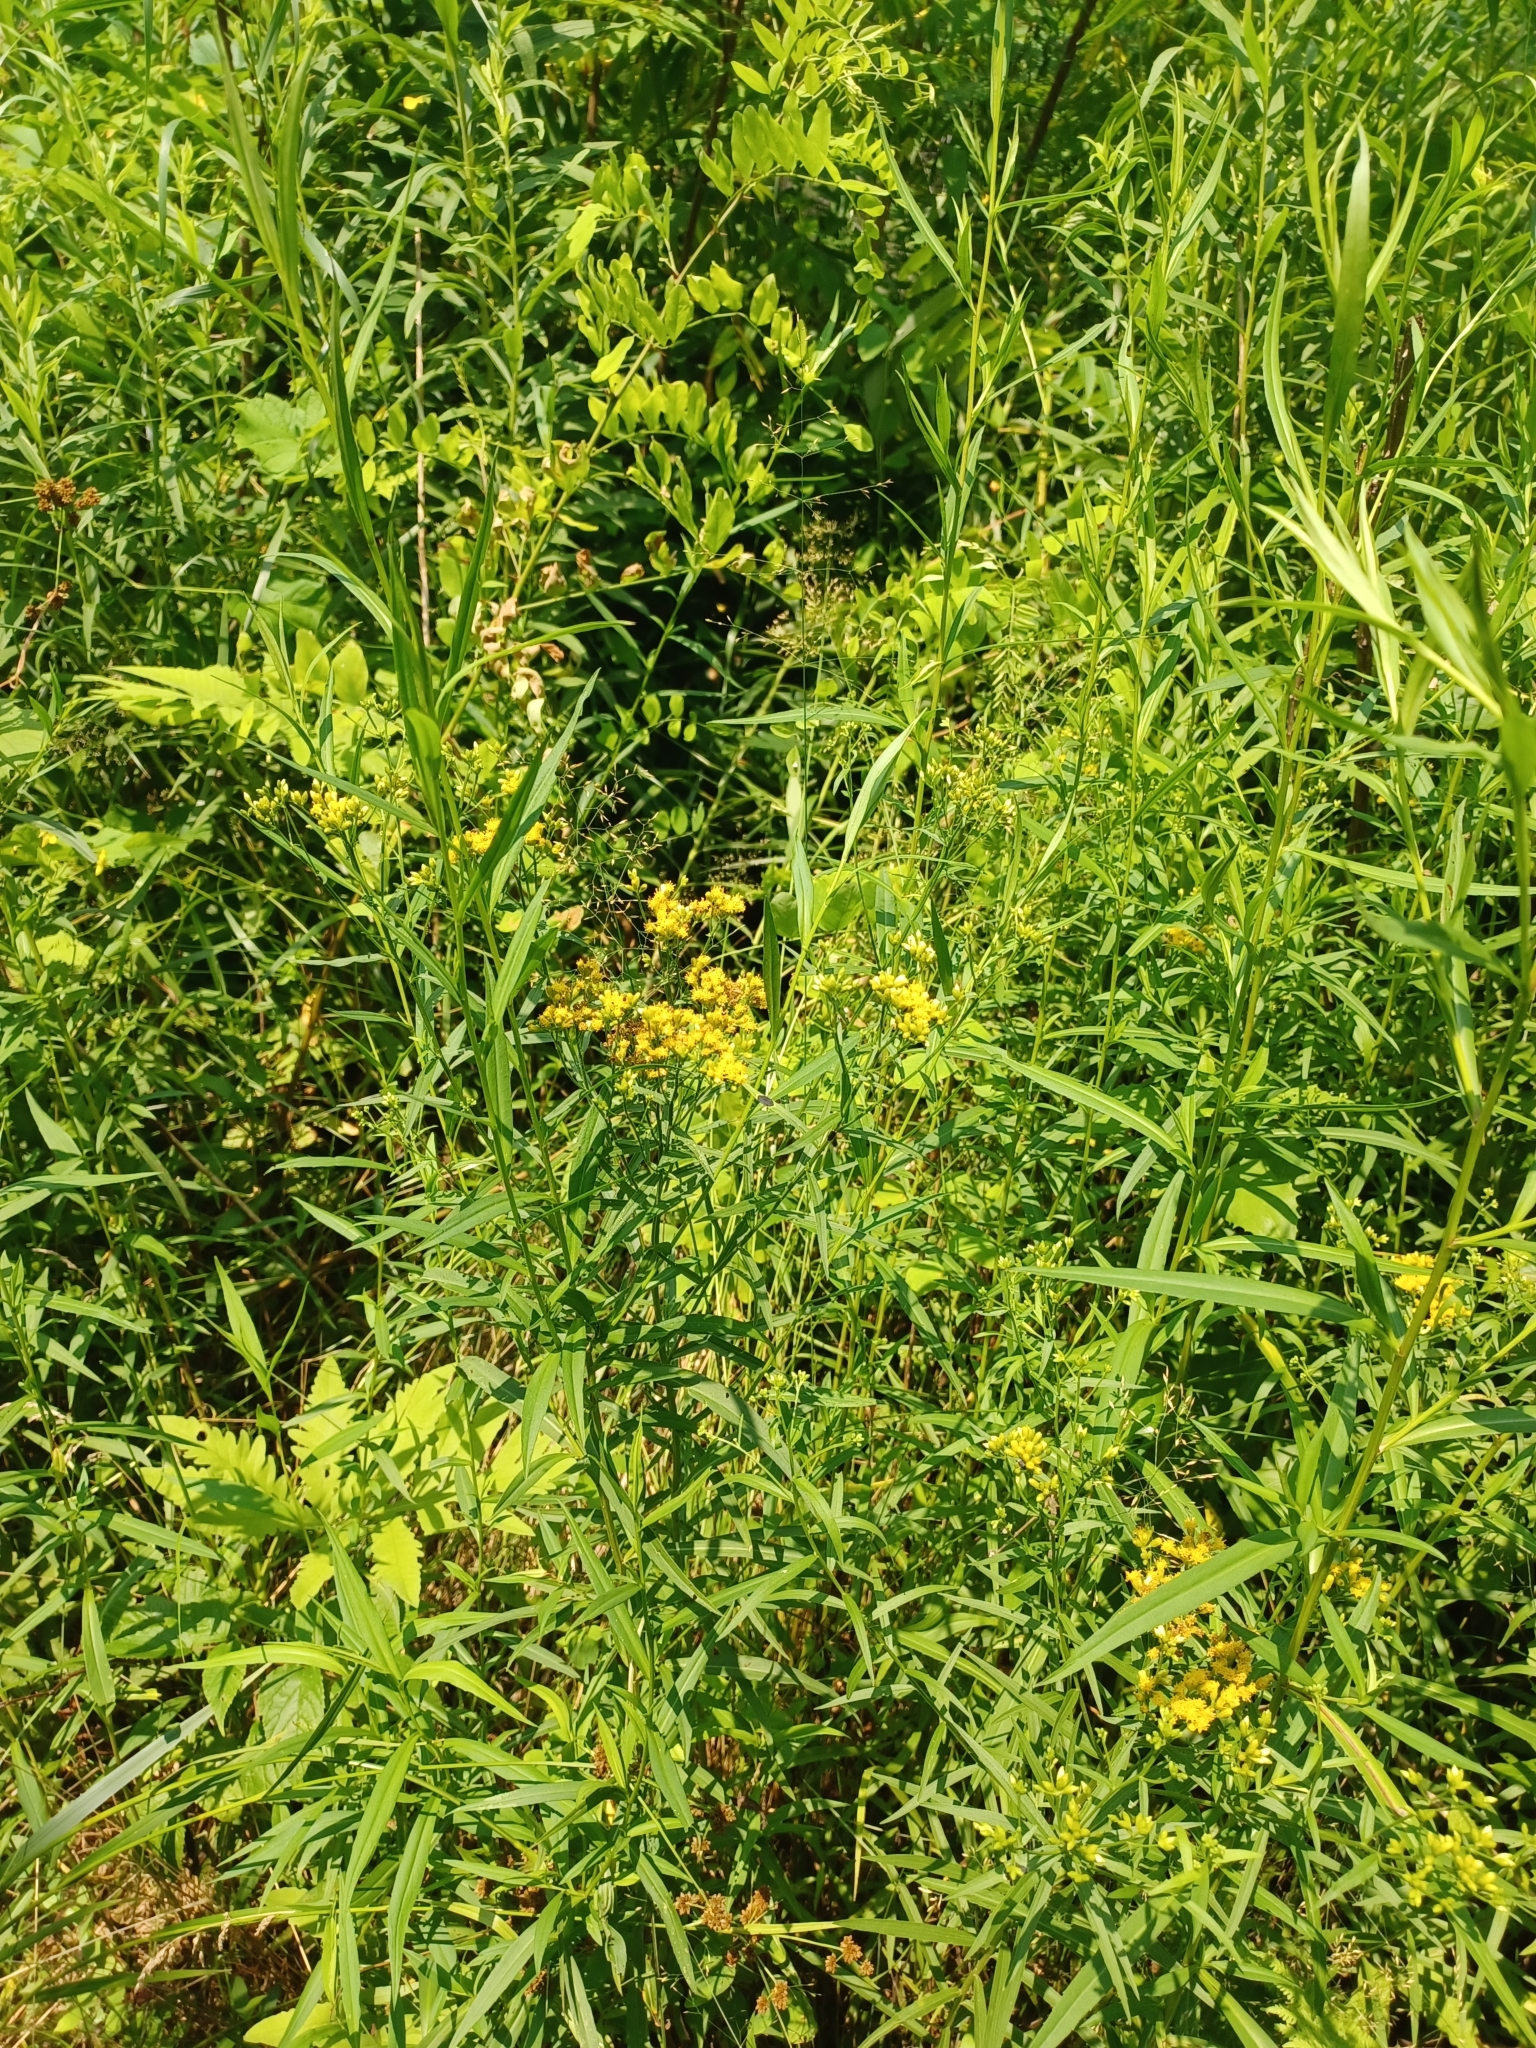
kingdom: Plantae
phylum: Tracheophyta
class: Magnoliopsida
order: Asterales
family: Asteraceae
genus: Euthamia
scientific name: Euthamia graminifolia
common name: Common goldentop
